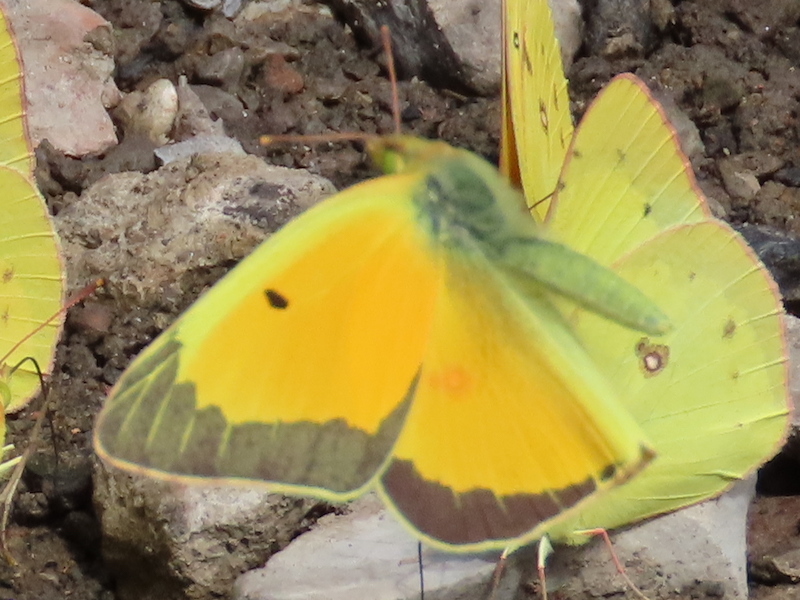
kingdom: Animalia
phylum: Arthropoda
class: Insecta
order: Lepidoptera
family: Pieridae
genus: Colias
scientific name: Colias eurytheme
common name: Alfalfa butterfly
